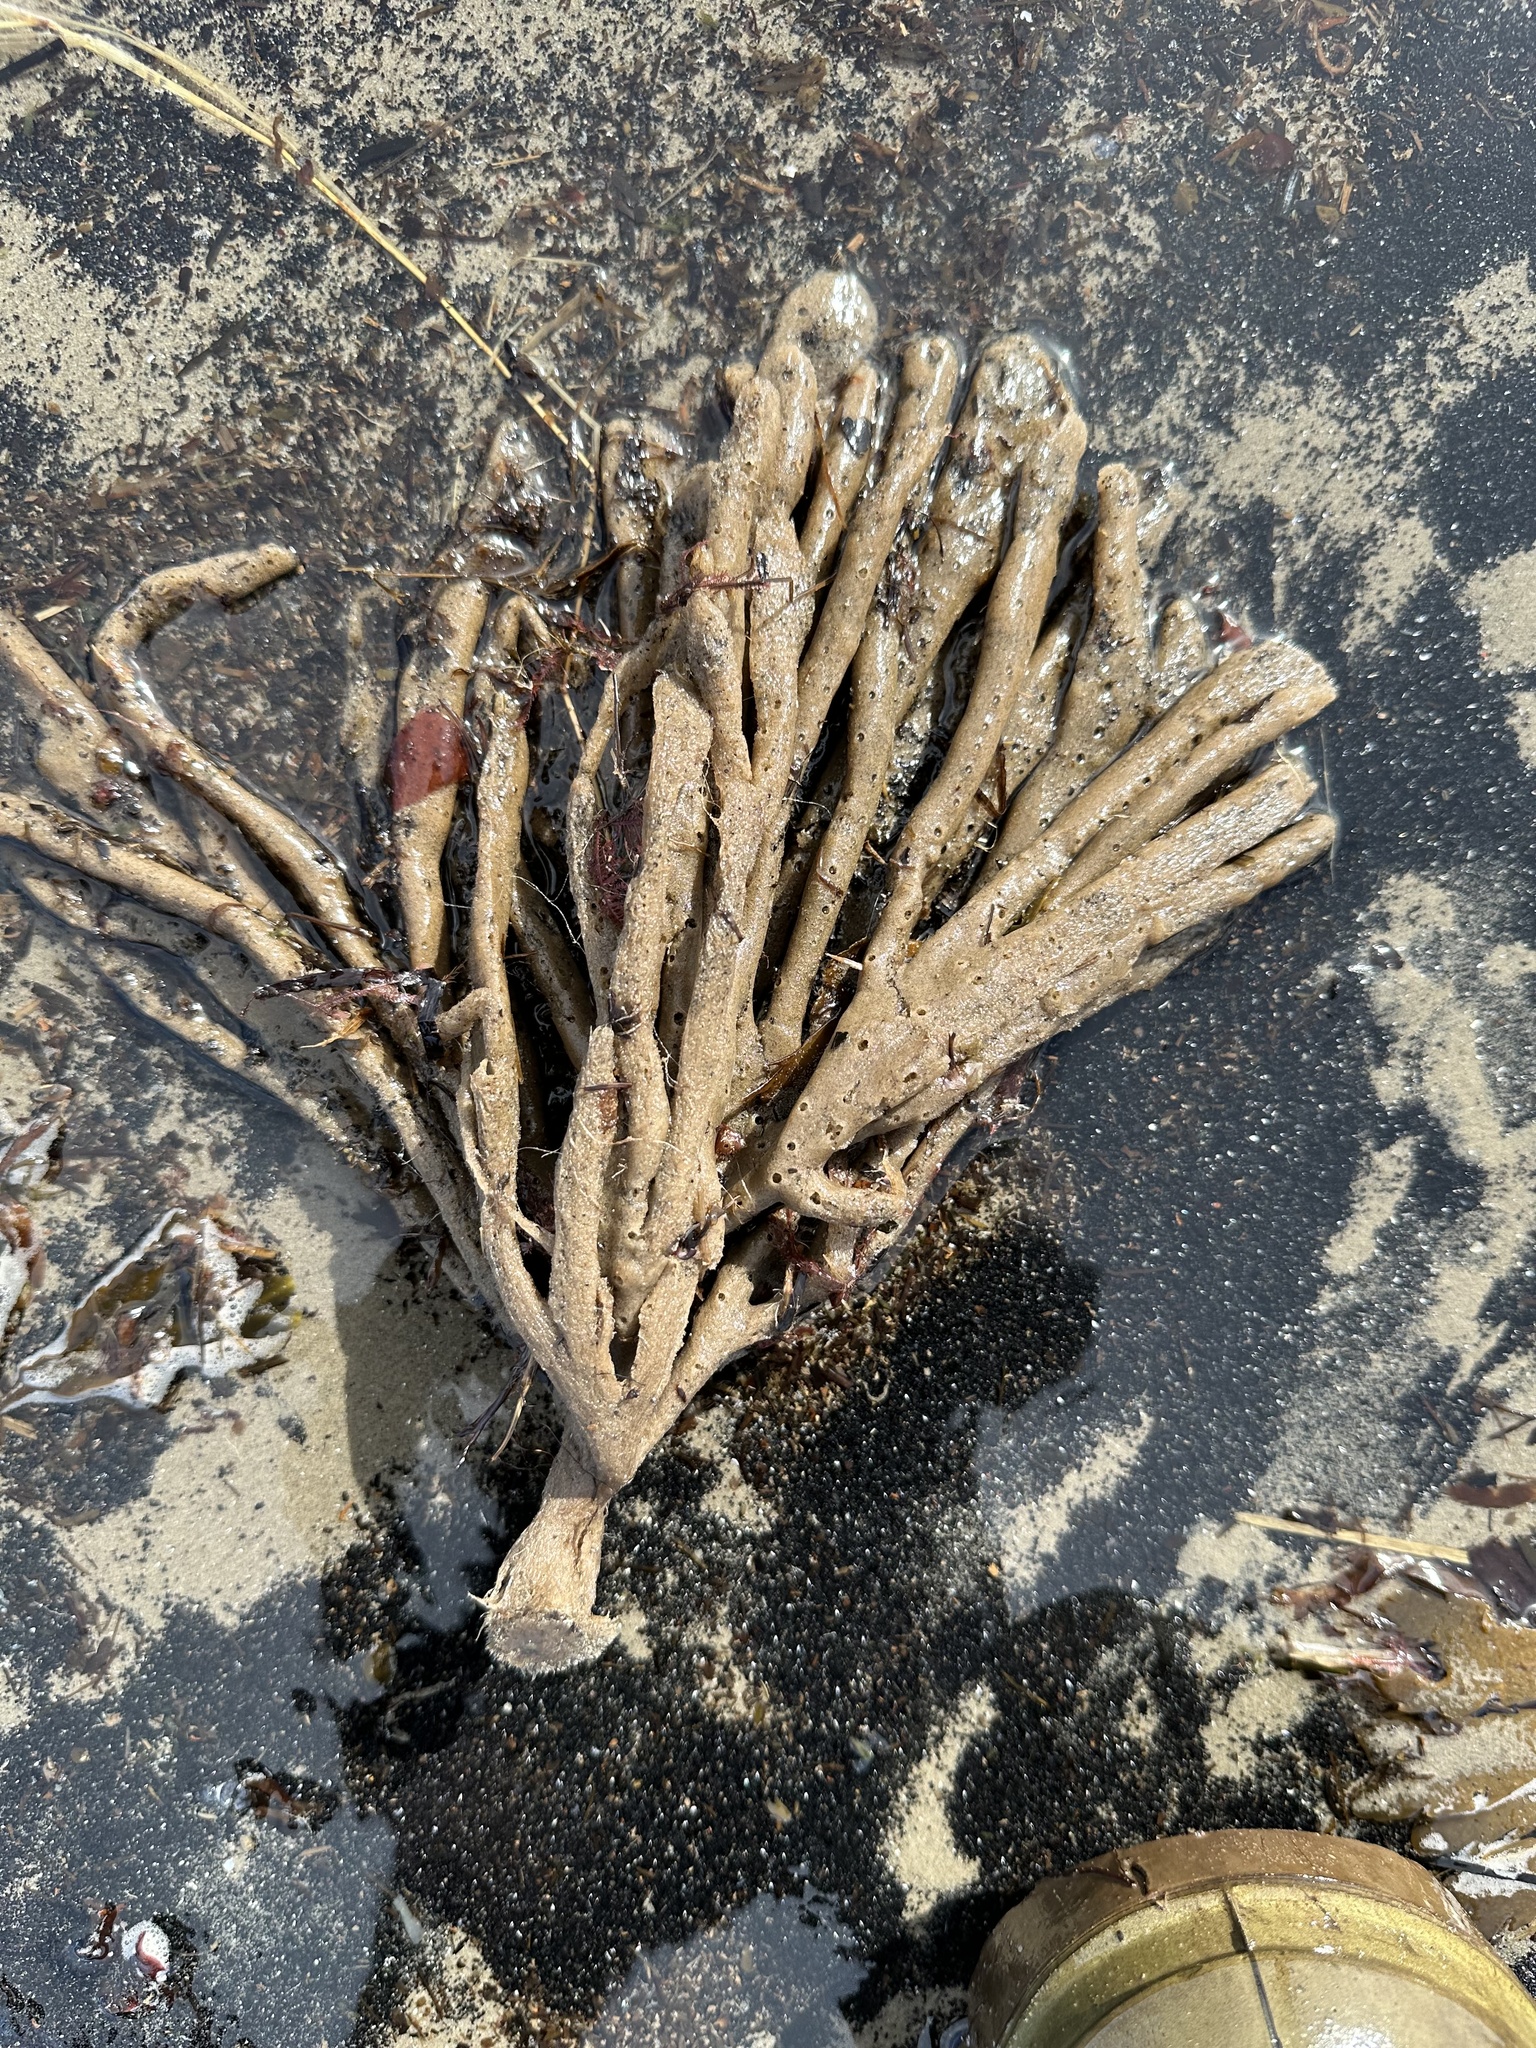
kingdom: Animalia
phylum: Porifera
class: Demospongiae
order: Haplosclerida
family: Chalinidae
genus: Haliclona
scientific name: Haliclona oculata
